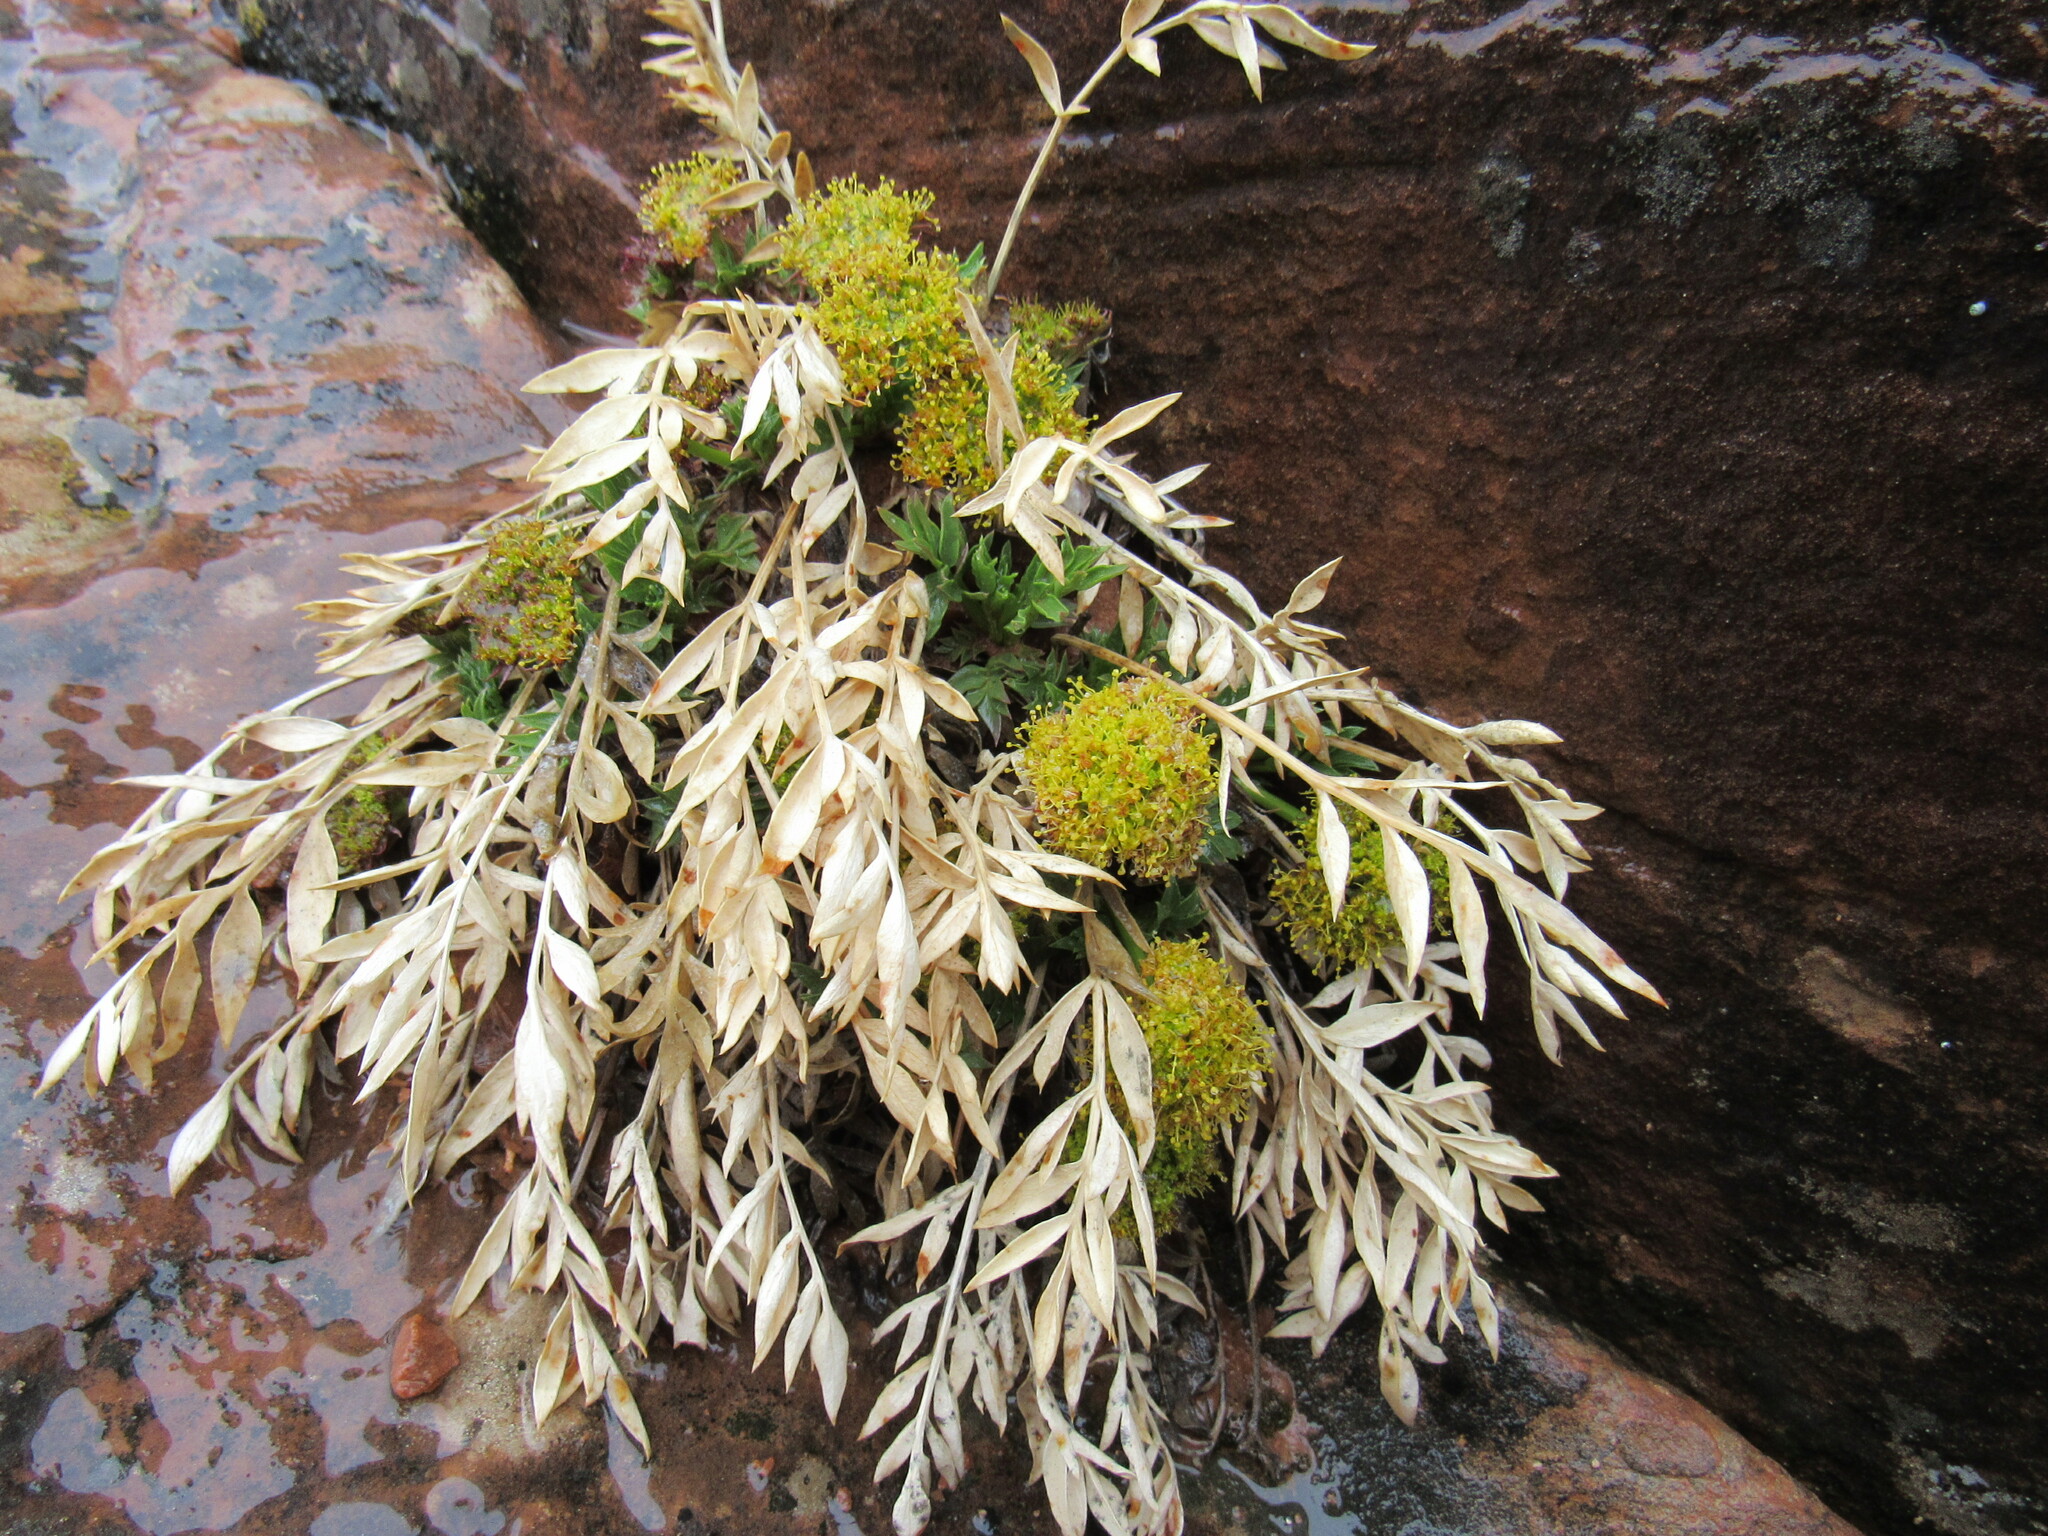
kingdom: Plantae
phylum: Tracheophyta
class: Magnoliopsida
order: Apiales
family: Apiaceae
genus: Lomatium
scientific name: Lomatium latilobum
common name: Canyonlands lomatium
